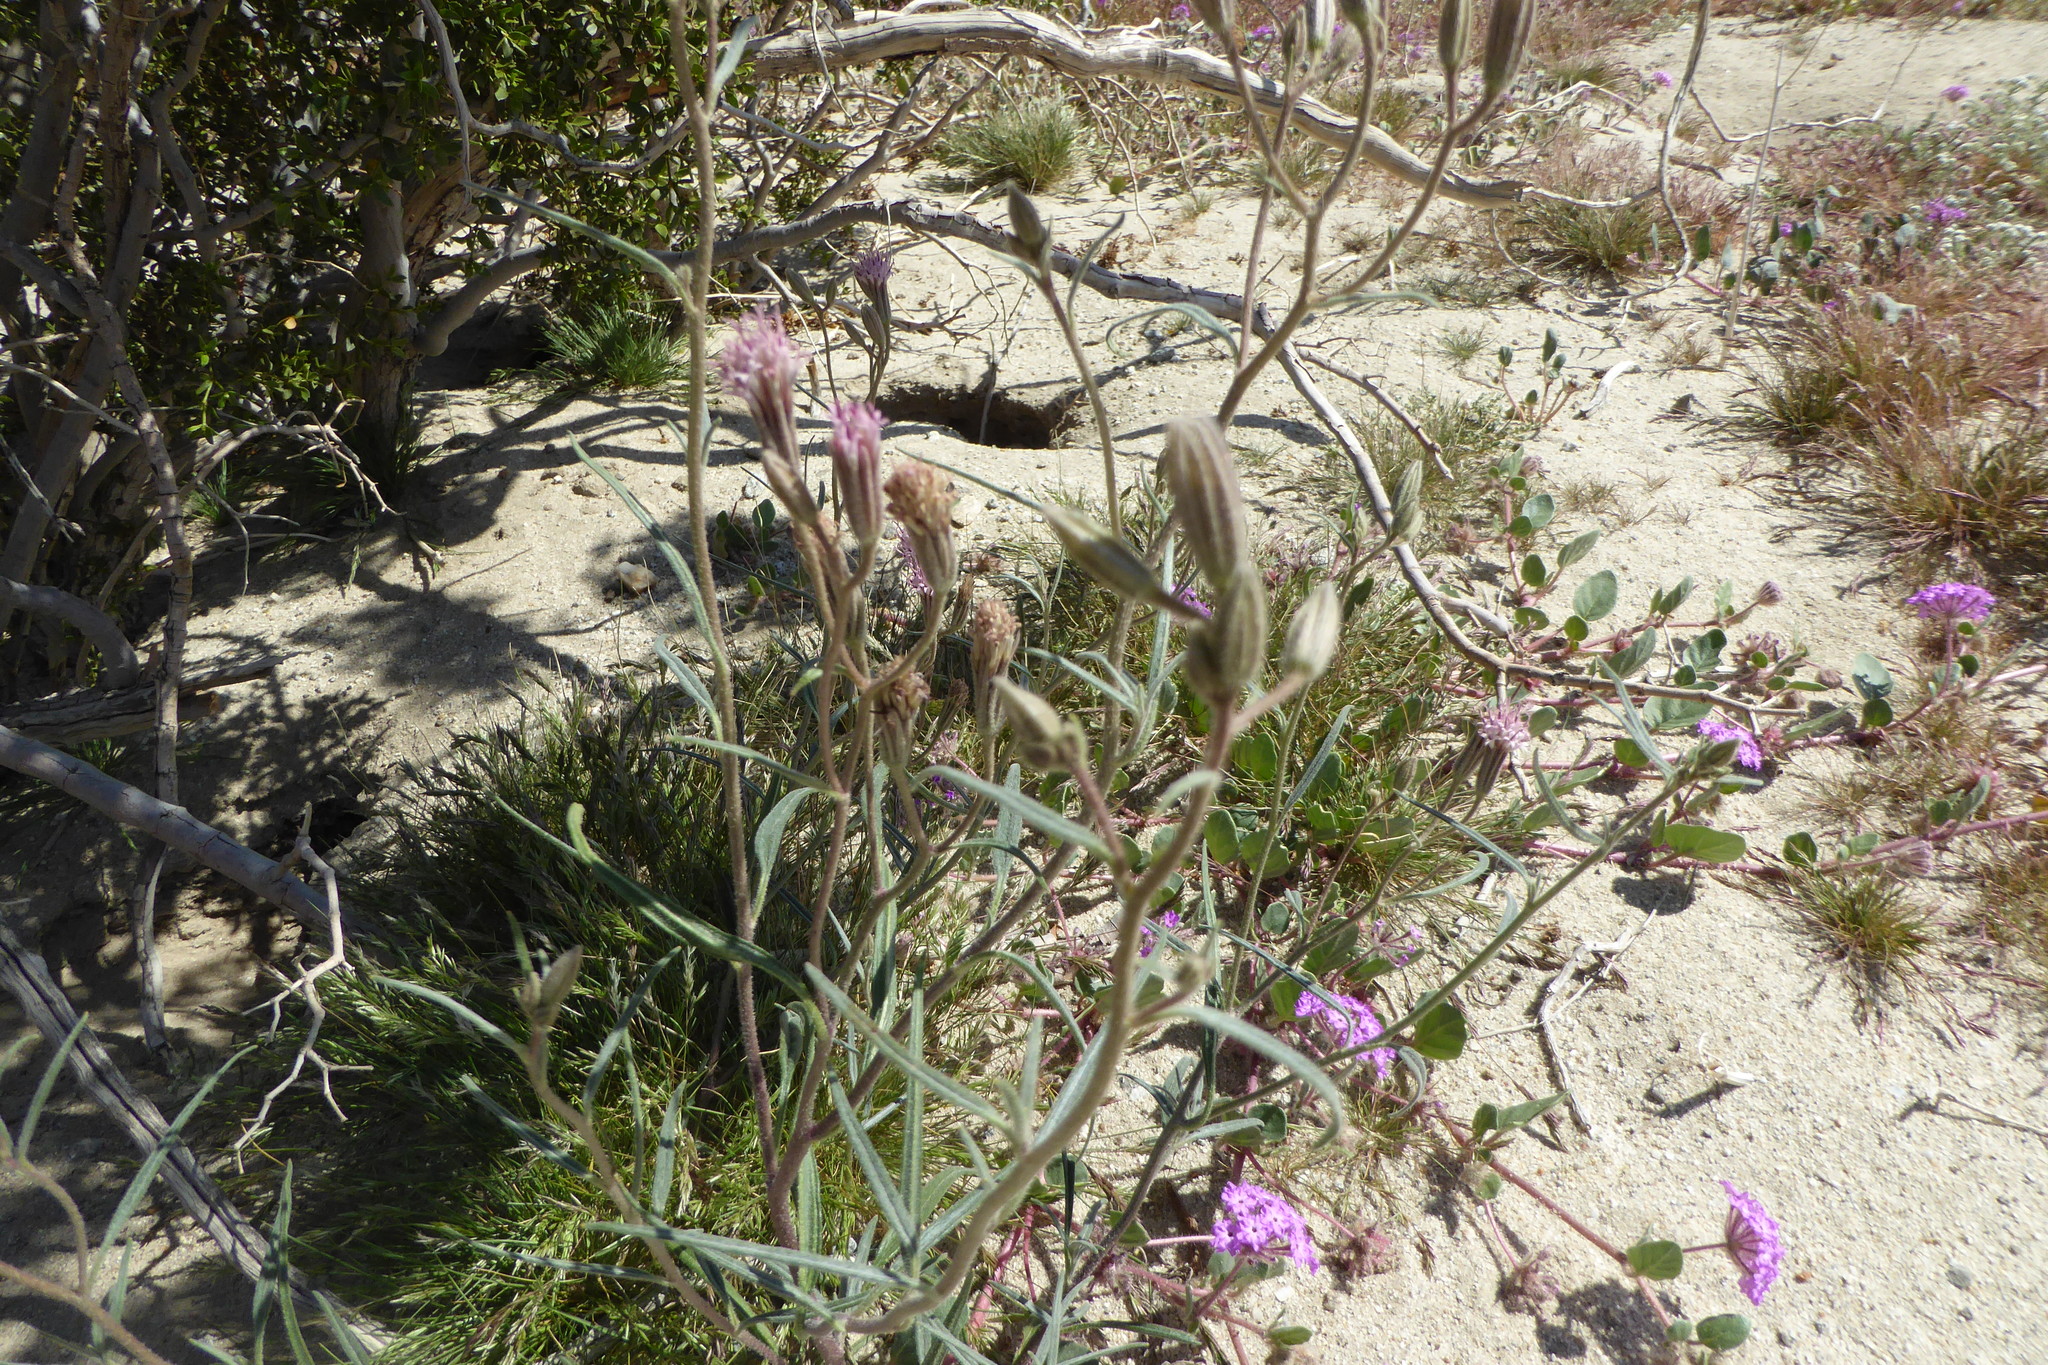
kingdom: Plantae
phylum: Tracheophyta
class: Magnoliopsida
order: Asterales
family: Asteraceae
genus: Palafoxia
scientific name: Palafoxia arida
